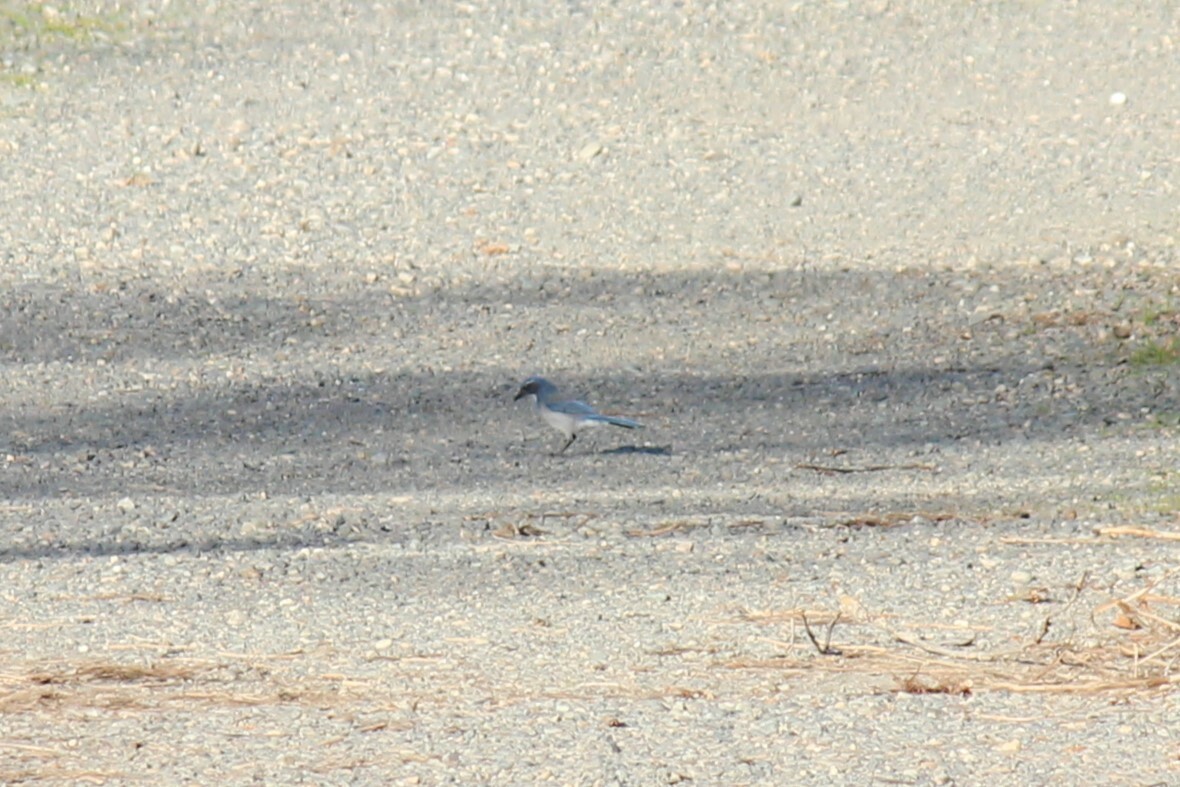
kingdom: Animalia
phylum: Chordata
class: Aves
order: Passeriformes
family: Corvidae
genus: Aphelocoma
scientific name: Aphelocoma californica
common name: California scrub-jay
